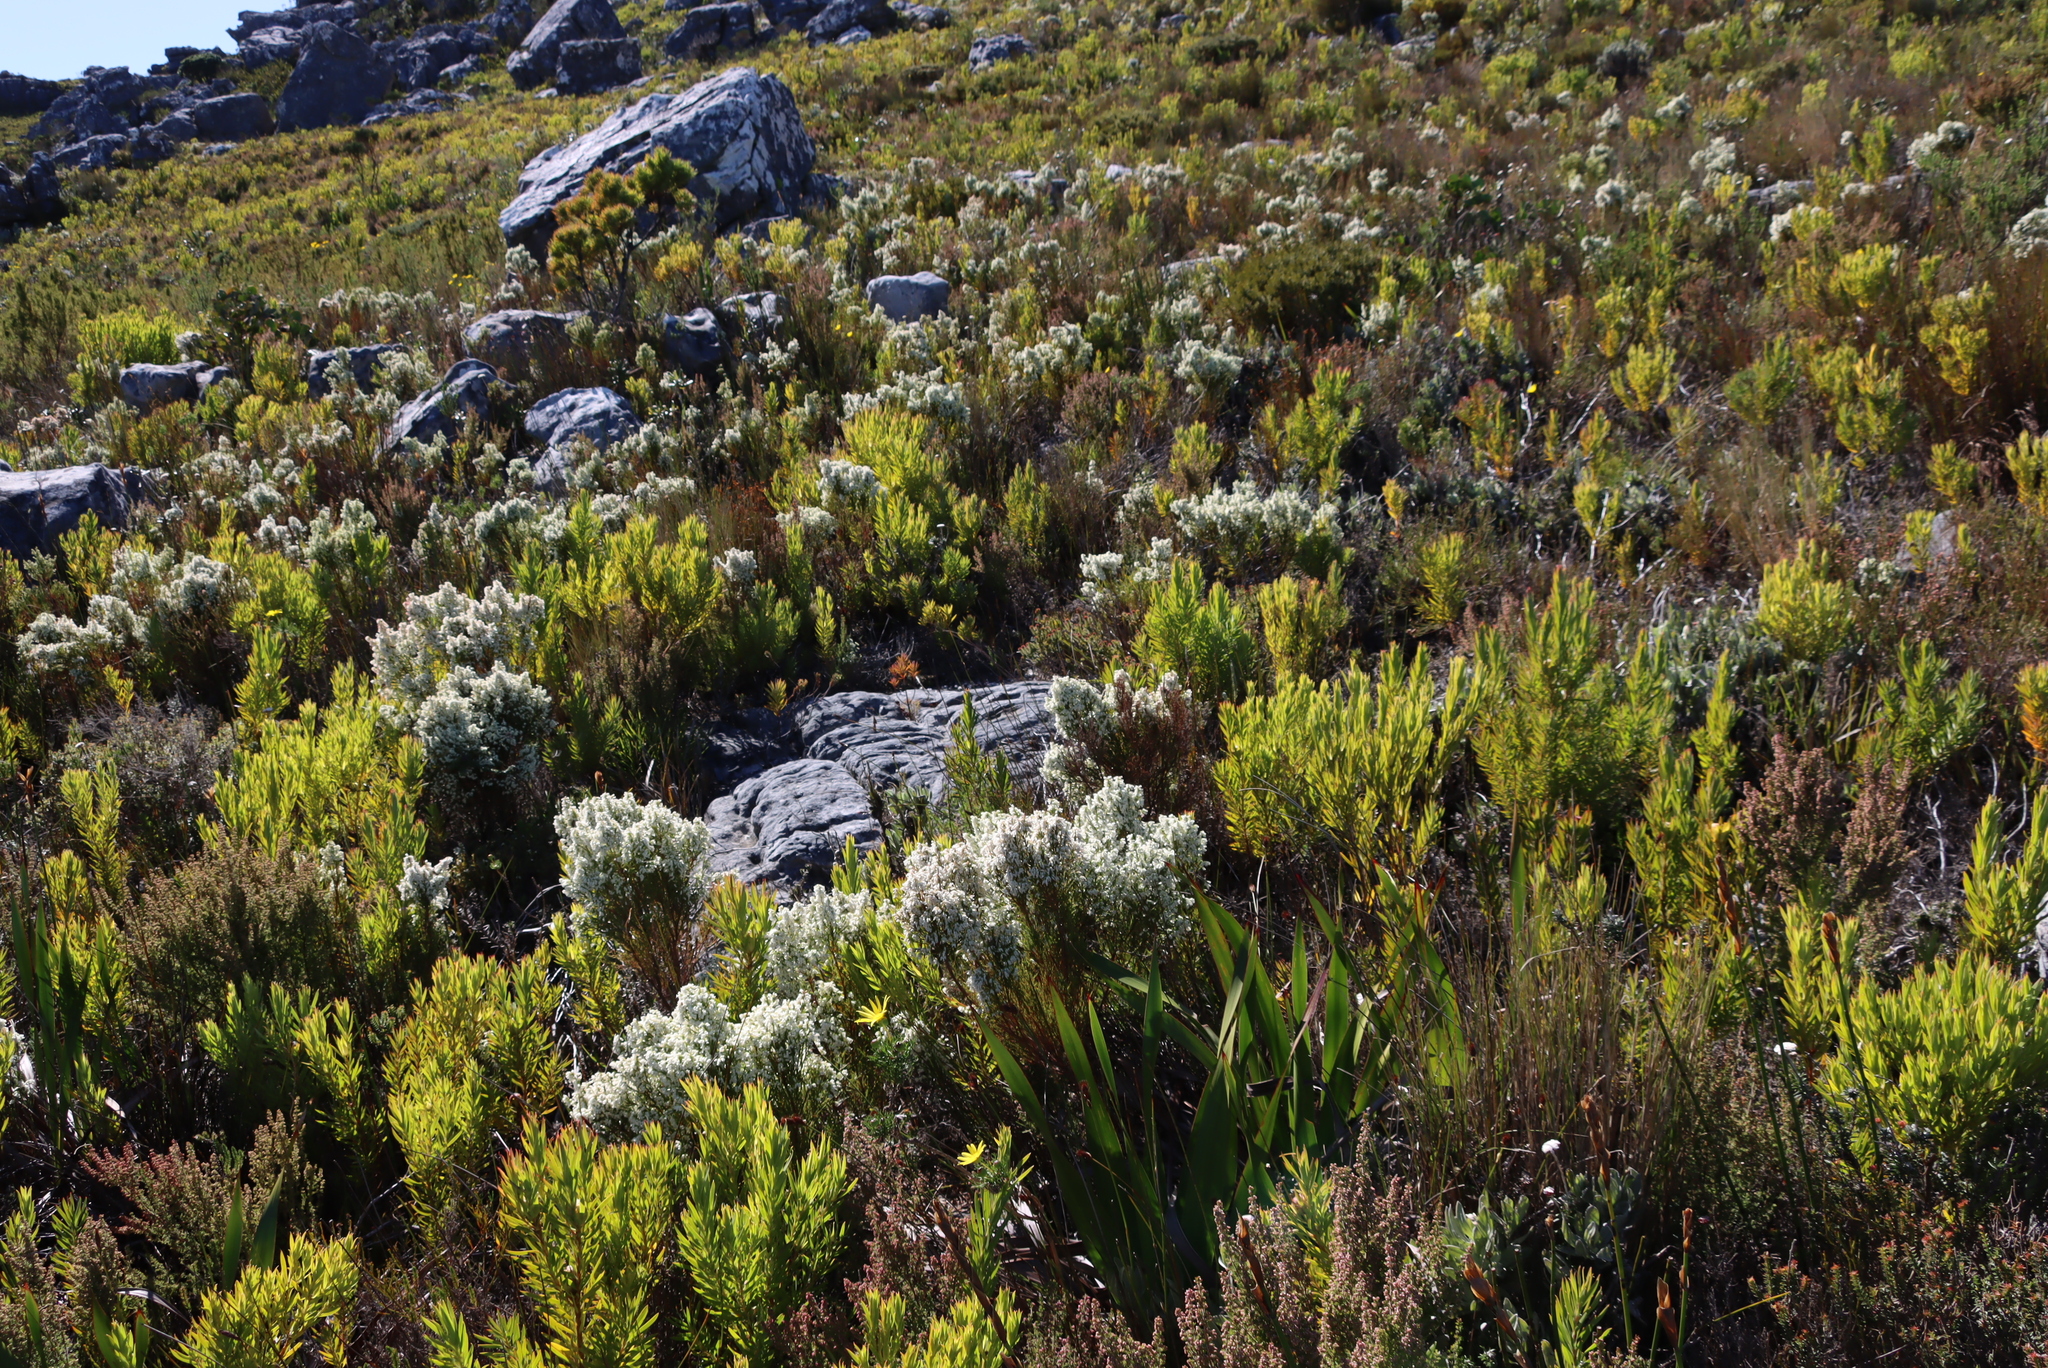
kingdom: Plantae
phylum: Tracheophyta
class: Magnoliopsida
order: Ericales
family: Ericaceae
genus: Erica
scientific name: Erica lutea
